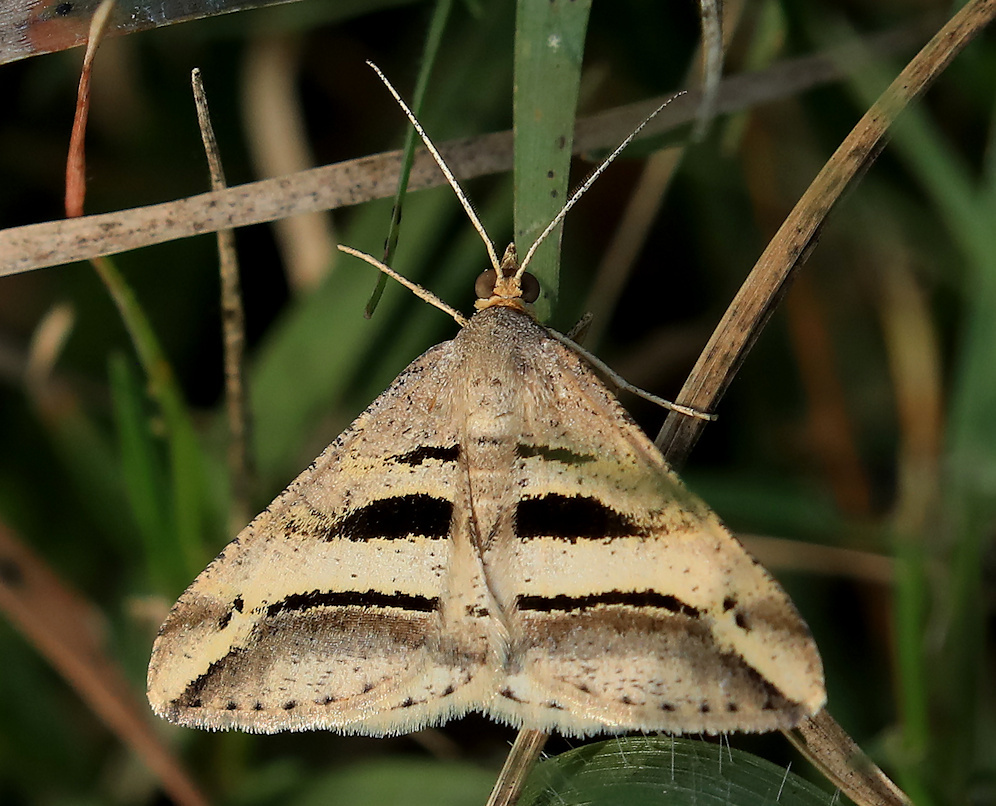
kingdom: Animalia
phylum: Arthropoda
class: Insecta
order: Lepidoptera
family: Geometridae
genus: Chiasmia
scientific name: Chiasmia subcurvaria
